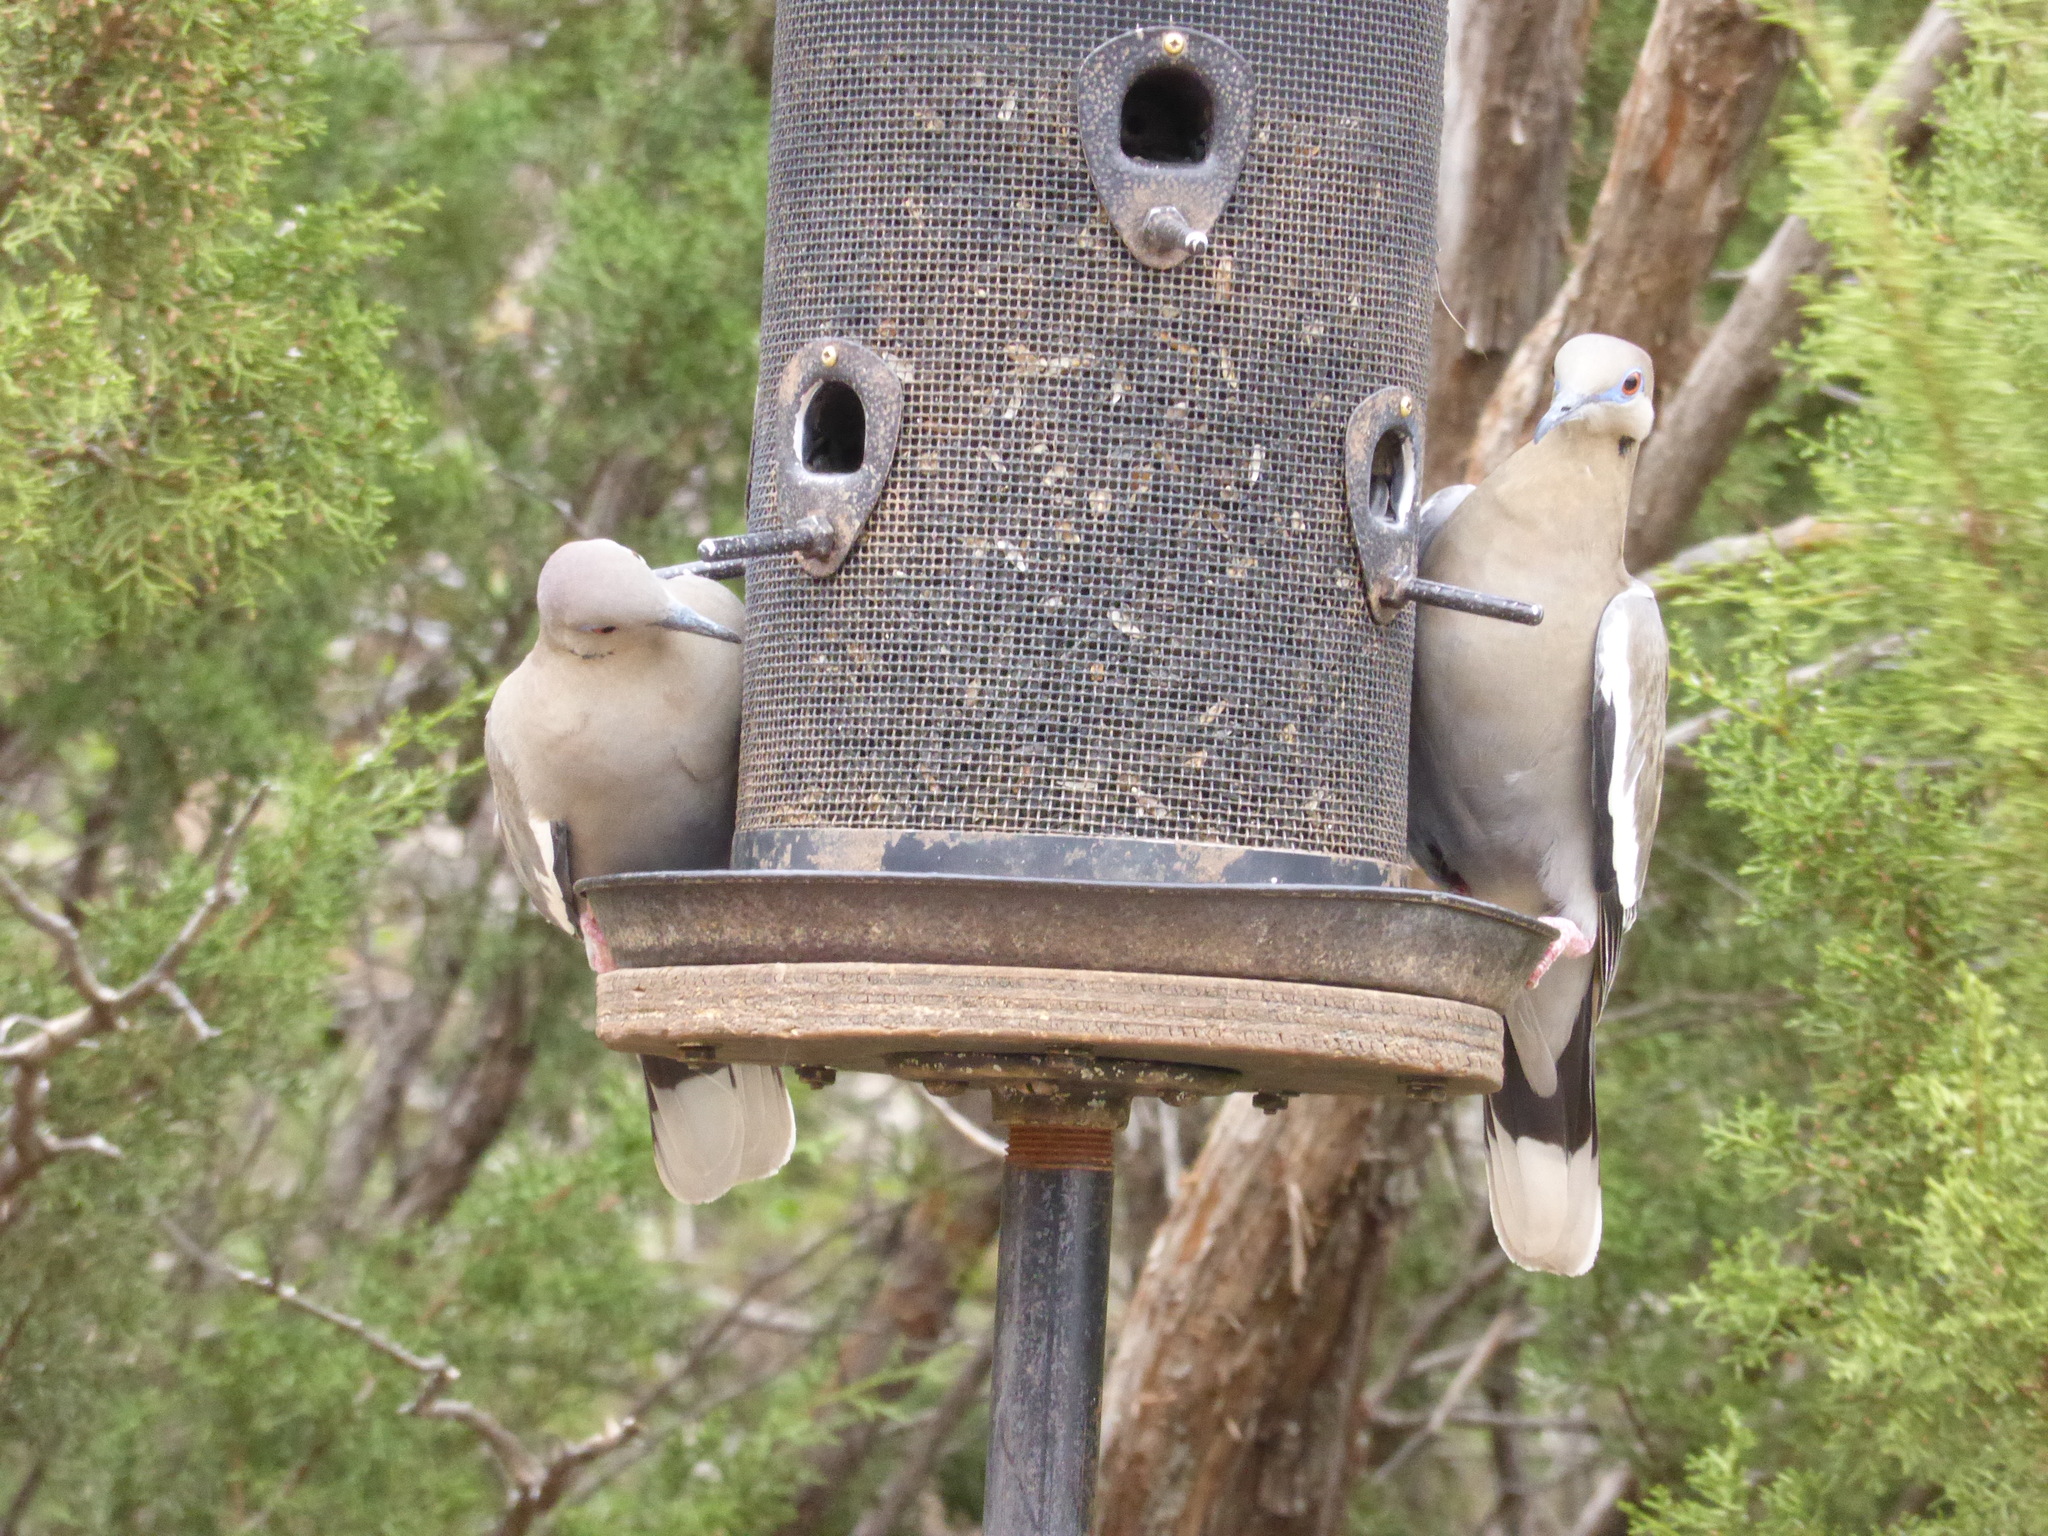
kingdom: Animalia
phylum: Chordata
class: Aves
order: Columbiformes
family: Columbidae
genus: Zenaida
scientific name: Zenaida asiatica
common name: White-winged dove
